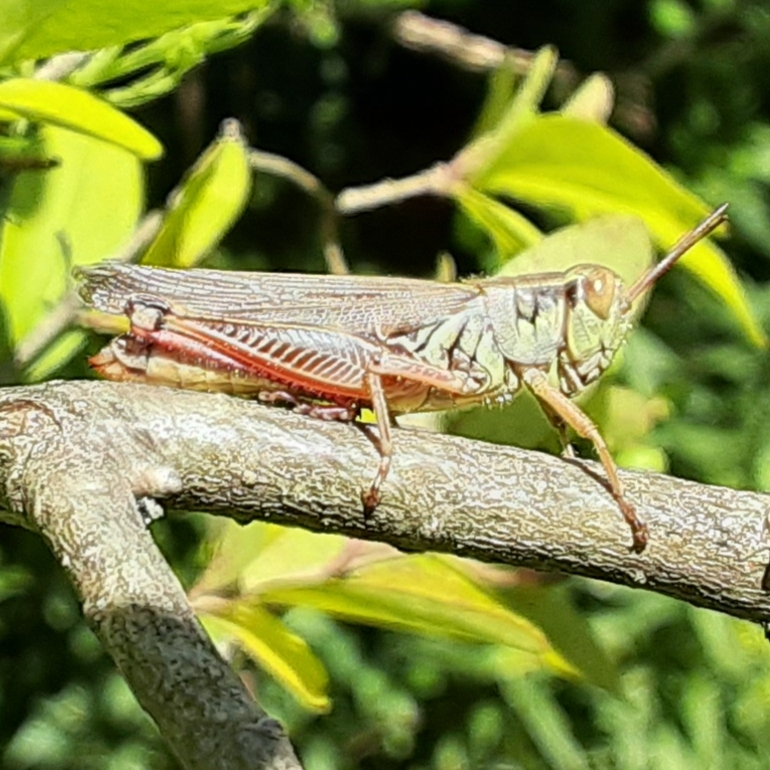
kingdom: Animalia
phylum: Arthropoda
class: Insecta
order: Orthoptera
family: Acrididae
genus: Melanoplus
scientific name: Melanoplus femurrubrum
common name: Red-legged grasshopper
